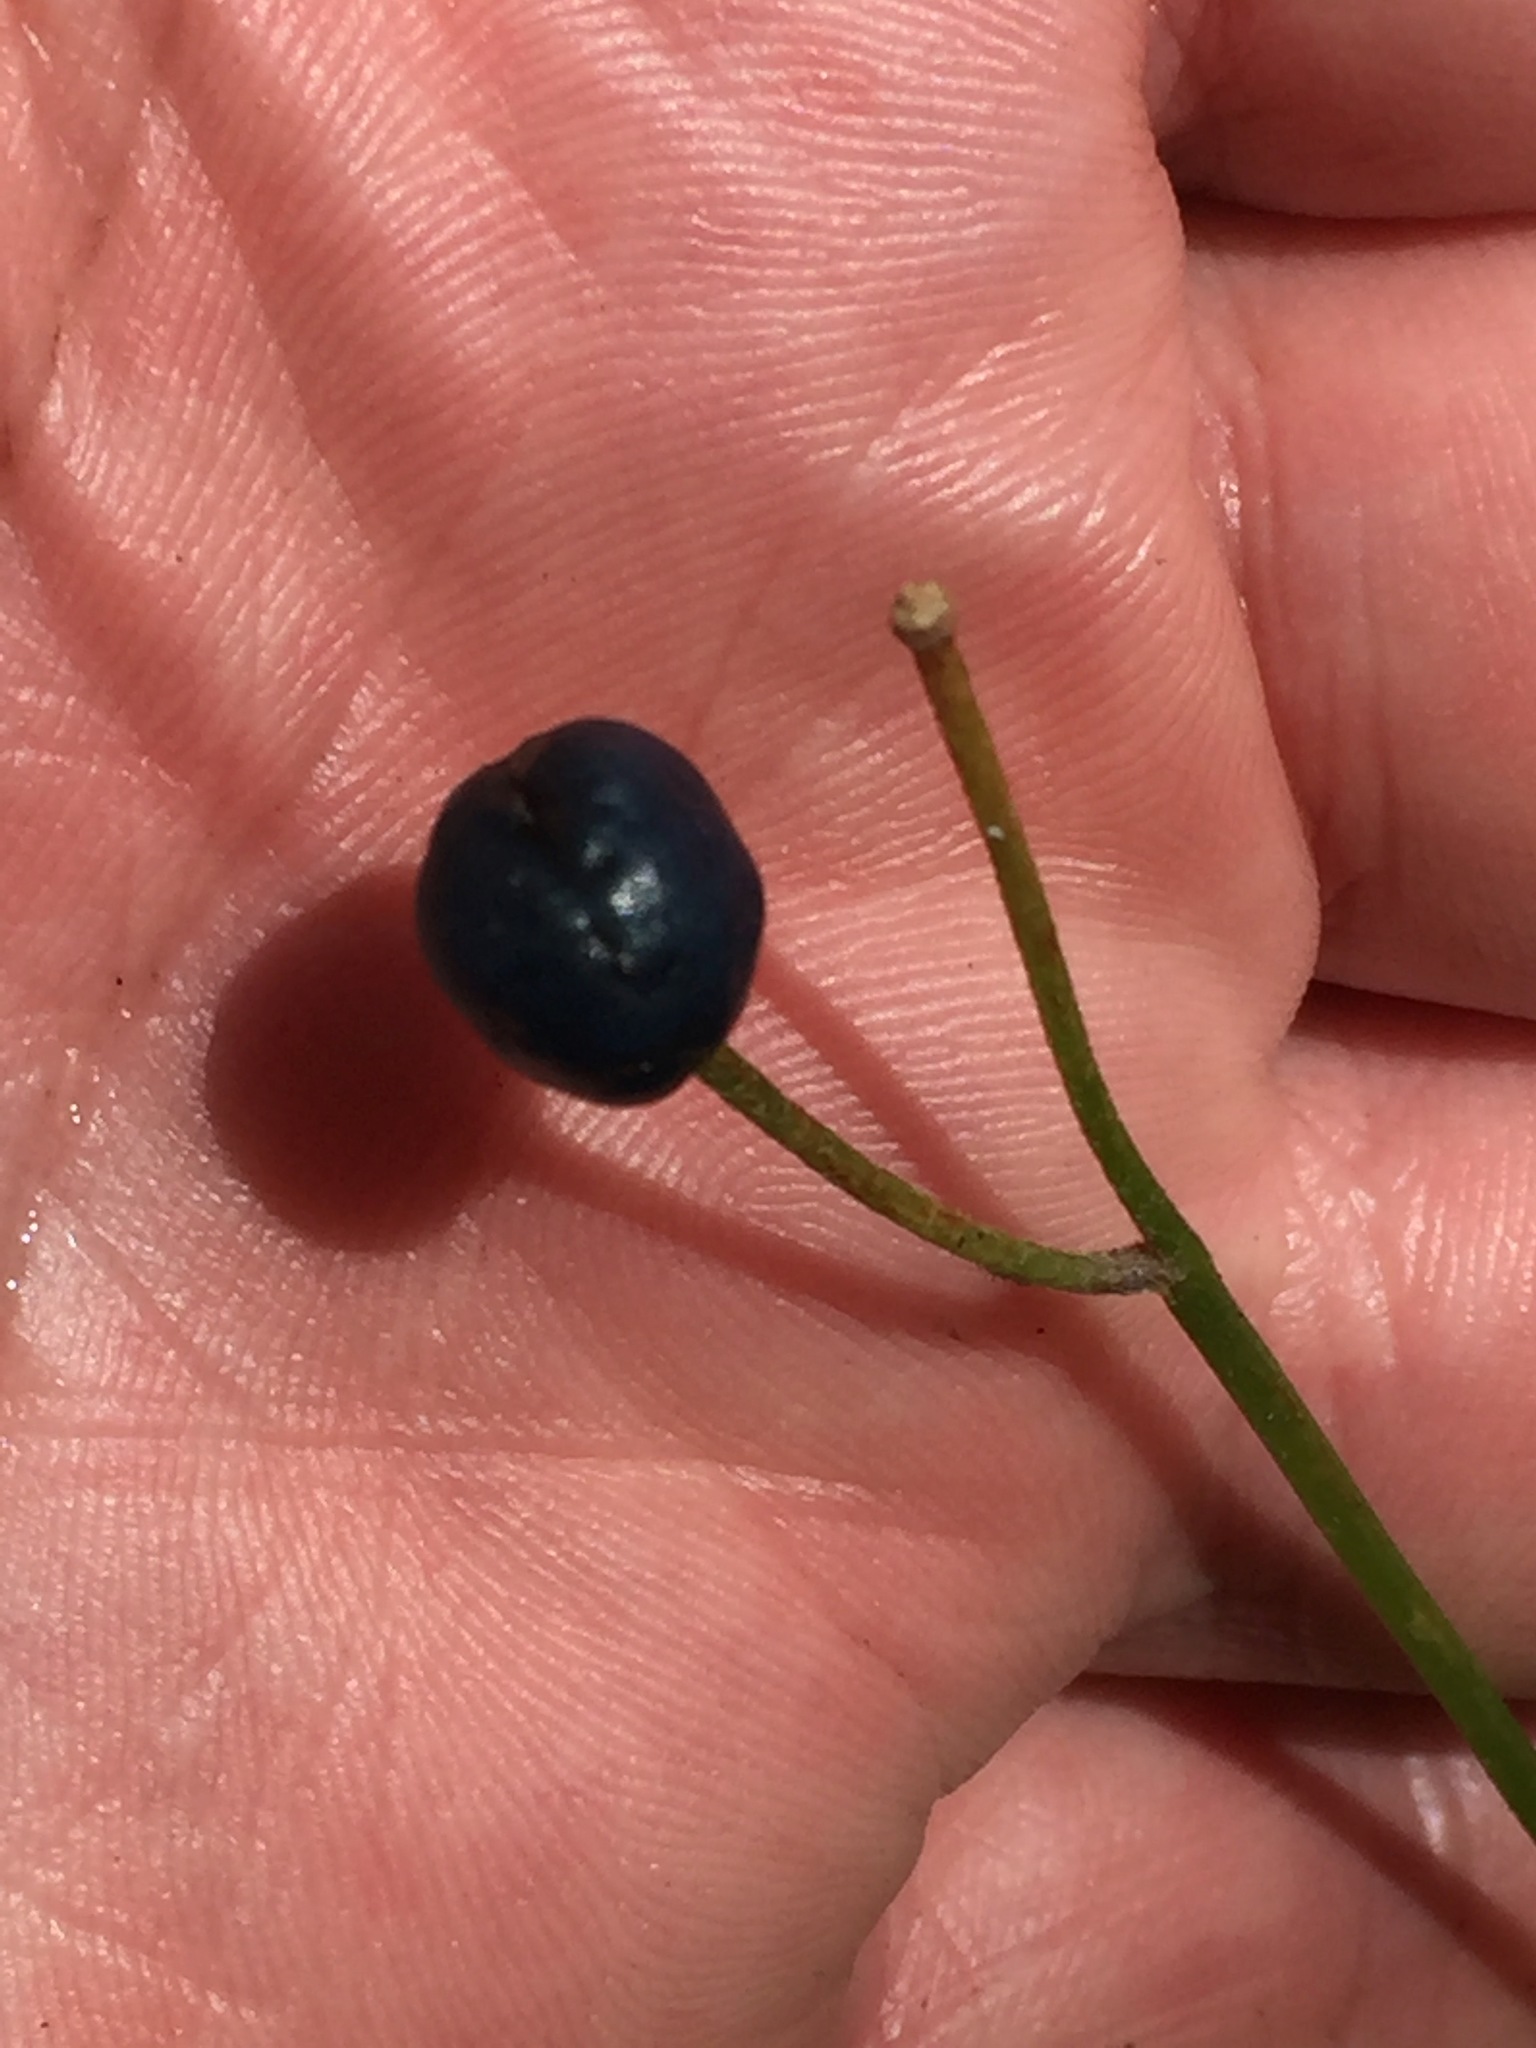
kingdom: Plantae
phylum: Tracheophyta
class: Liliopsida
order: Liliales
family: Liliaceae
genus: Clintonia
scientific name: Clintonia borealis
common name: Yellow clintonia
